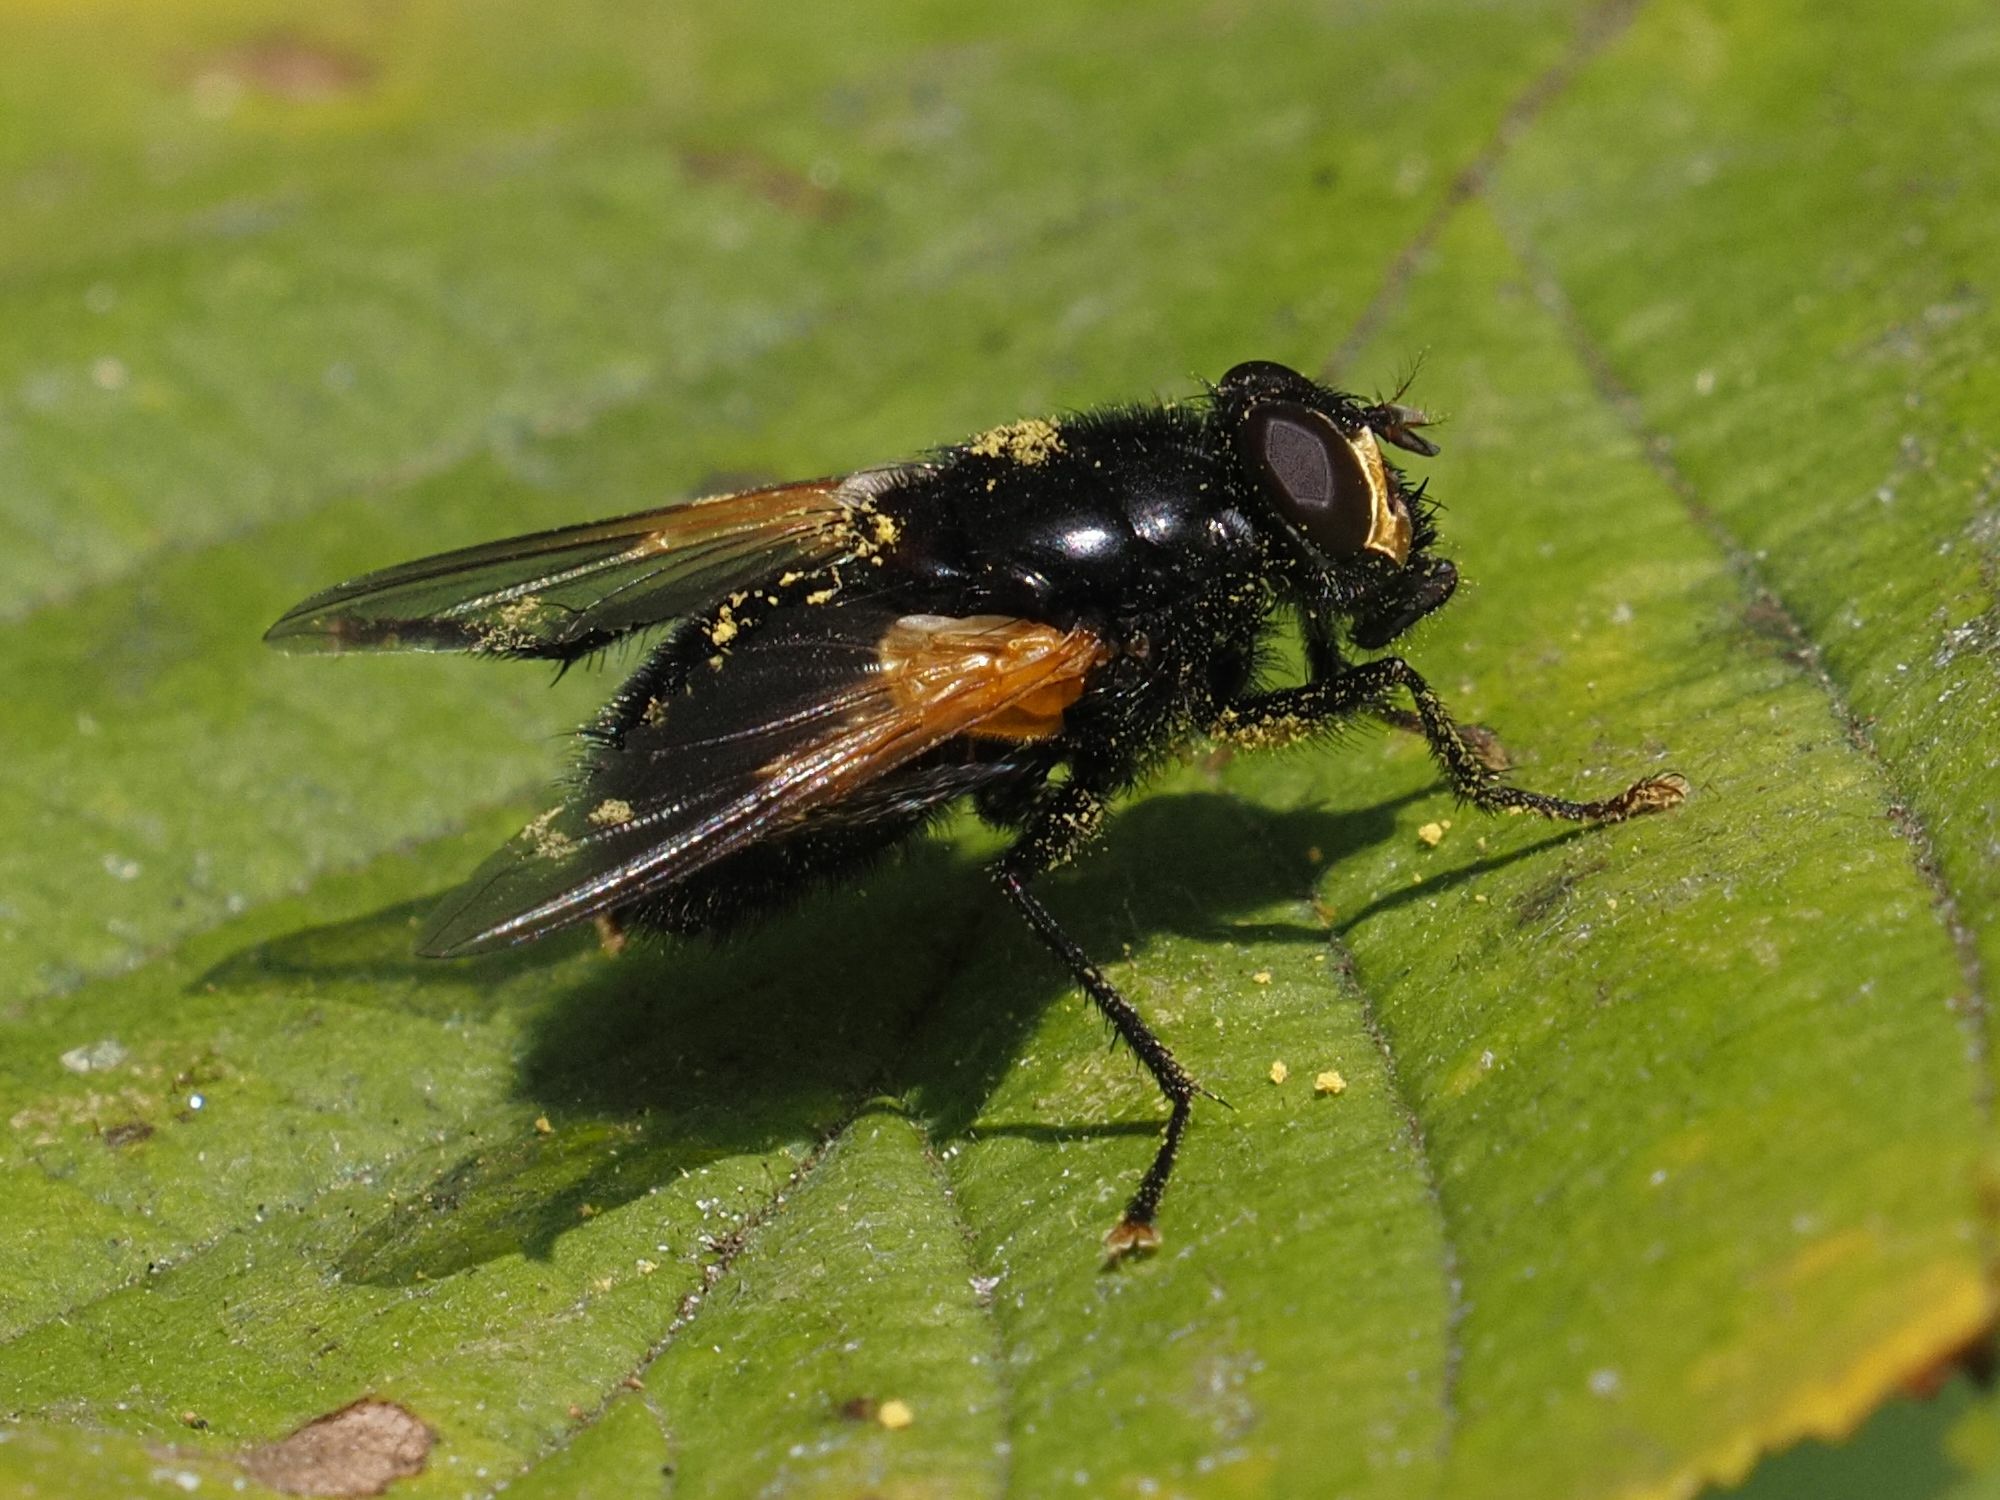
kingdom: Animalia
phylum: Arthropoda
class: Insecta
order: Diptera
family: Muscidae
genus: Mesembrina
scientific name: Mesembrina meridiana
